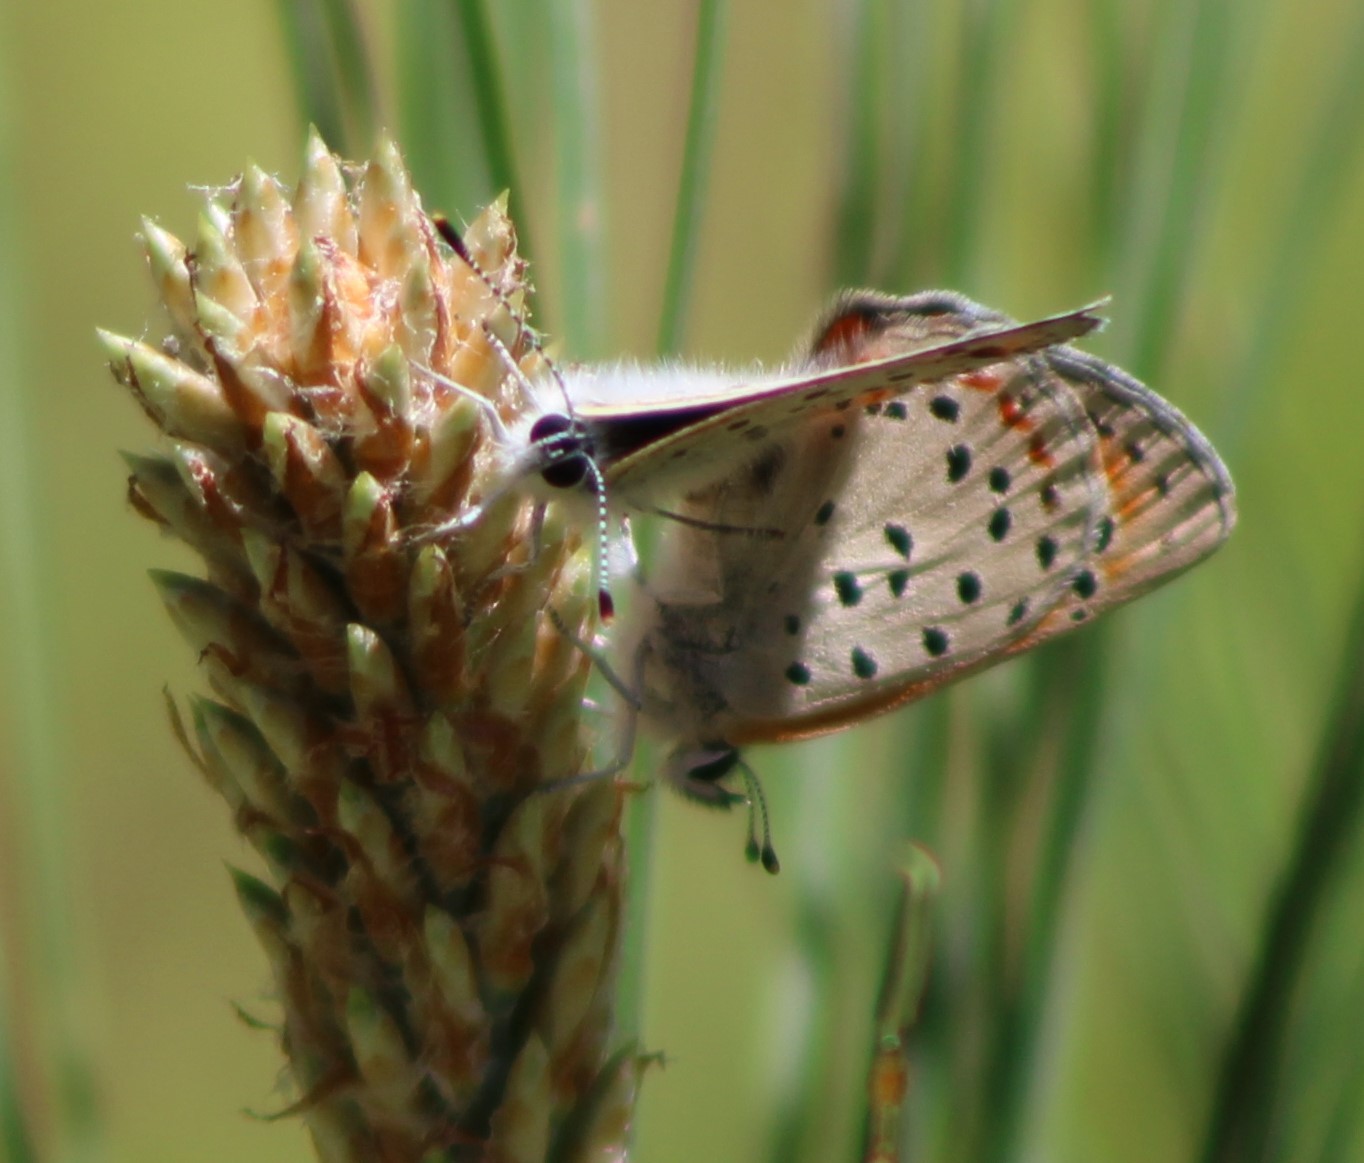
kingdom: Animalia
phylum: Arthropoda
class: Insecta
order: Lepidoptera
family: Lycaenidae
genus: Lycaena
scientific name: Lycaena cupreus
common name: Lustrous copper
